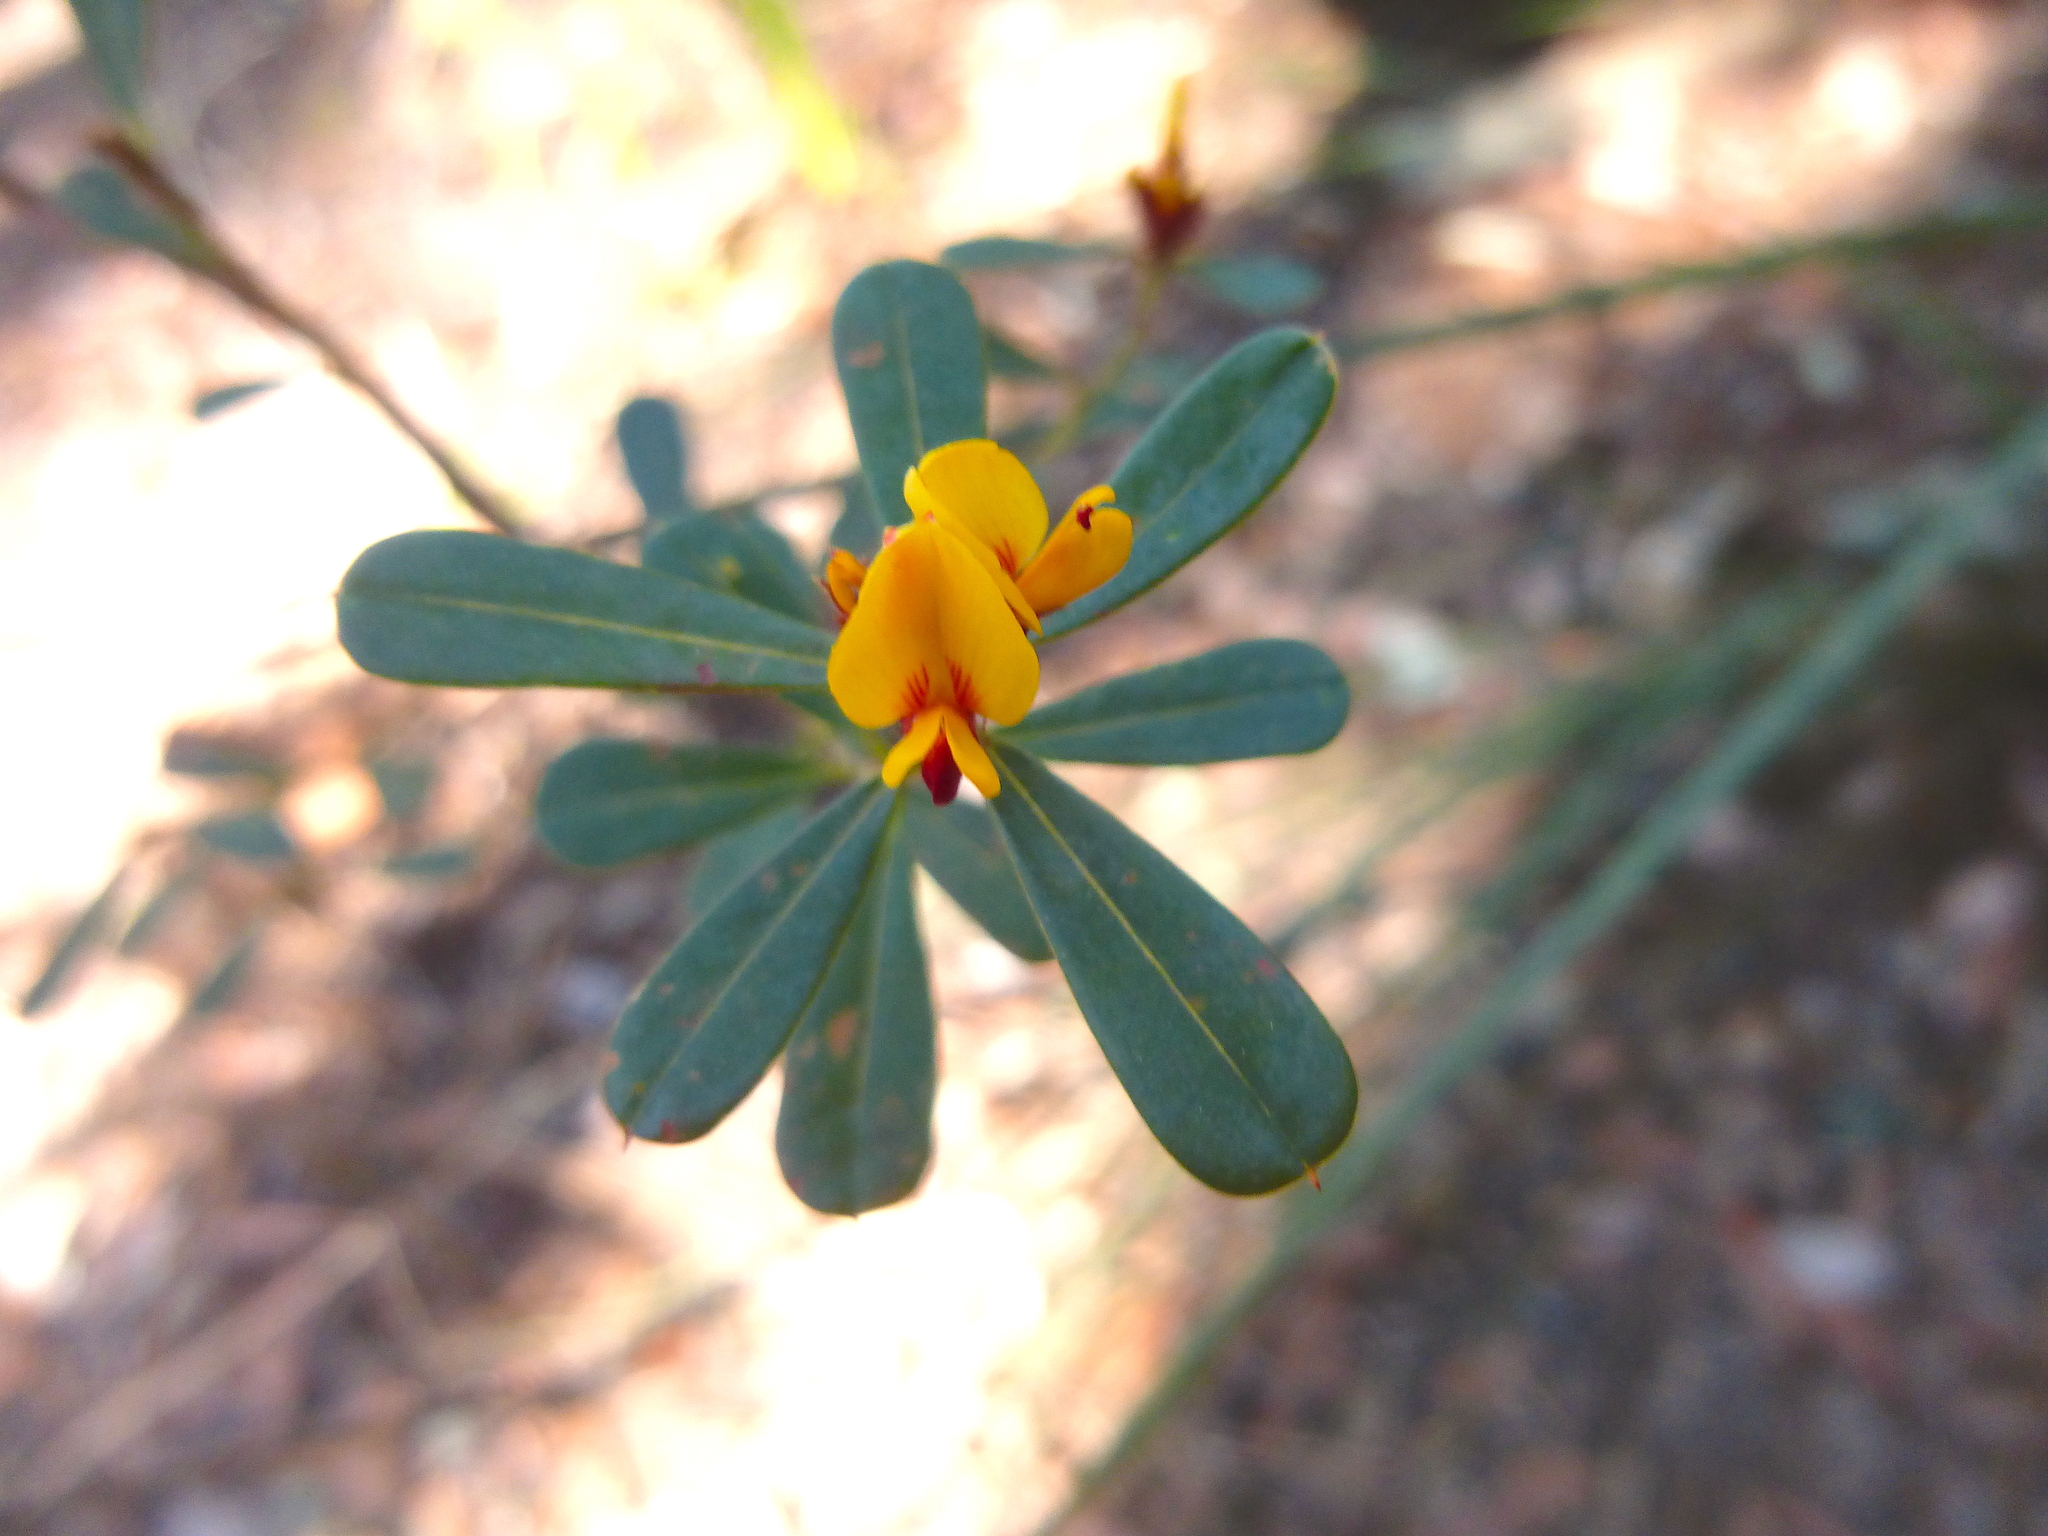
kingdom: Plantae
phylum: Tracheophyta
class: Magnoliopsida
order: Fabales
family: Fabaceae
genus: Pultenaea
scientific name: Pultenaea daphnoides
